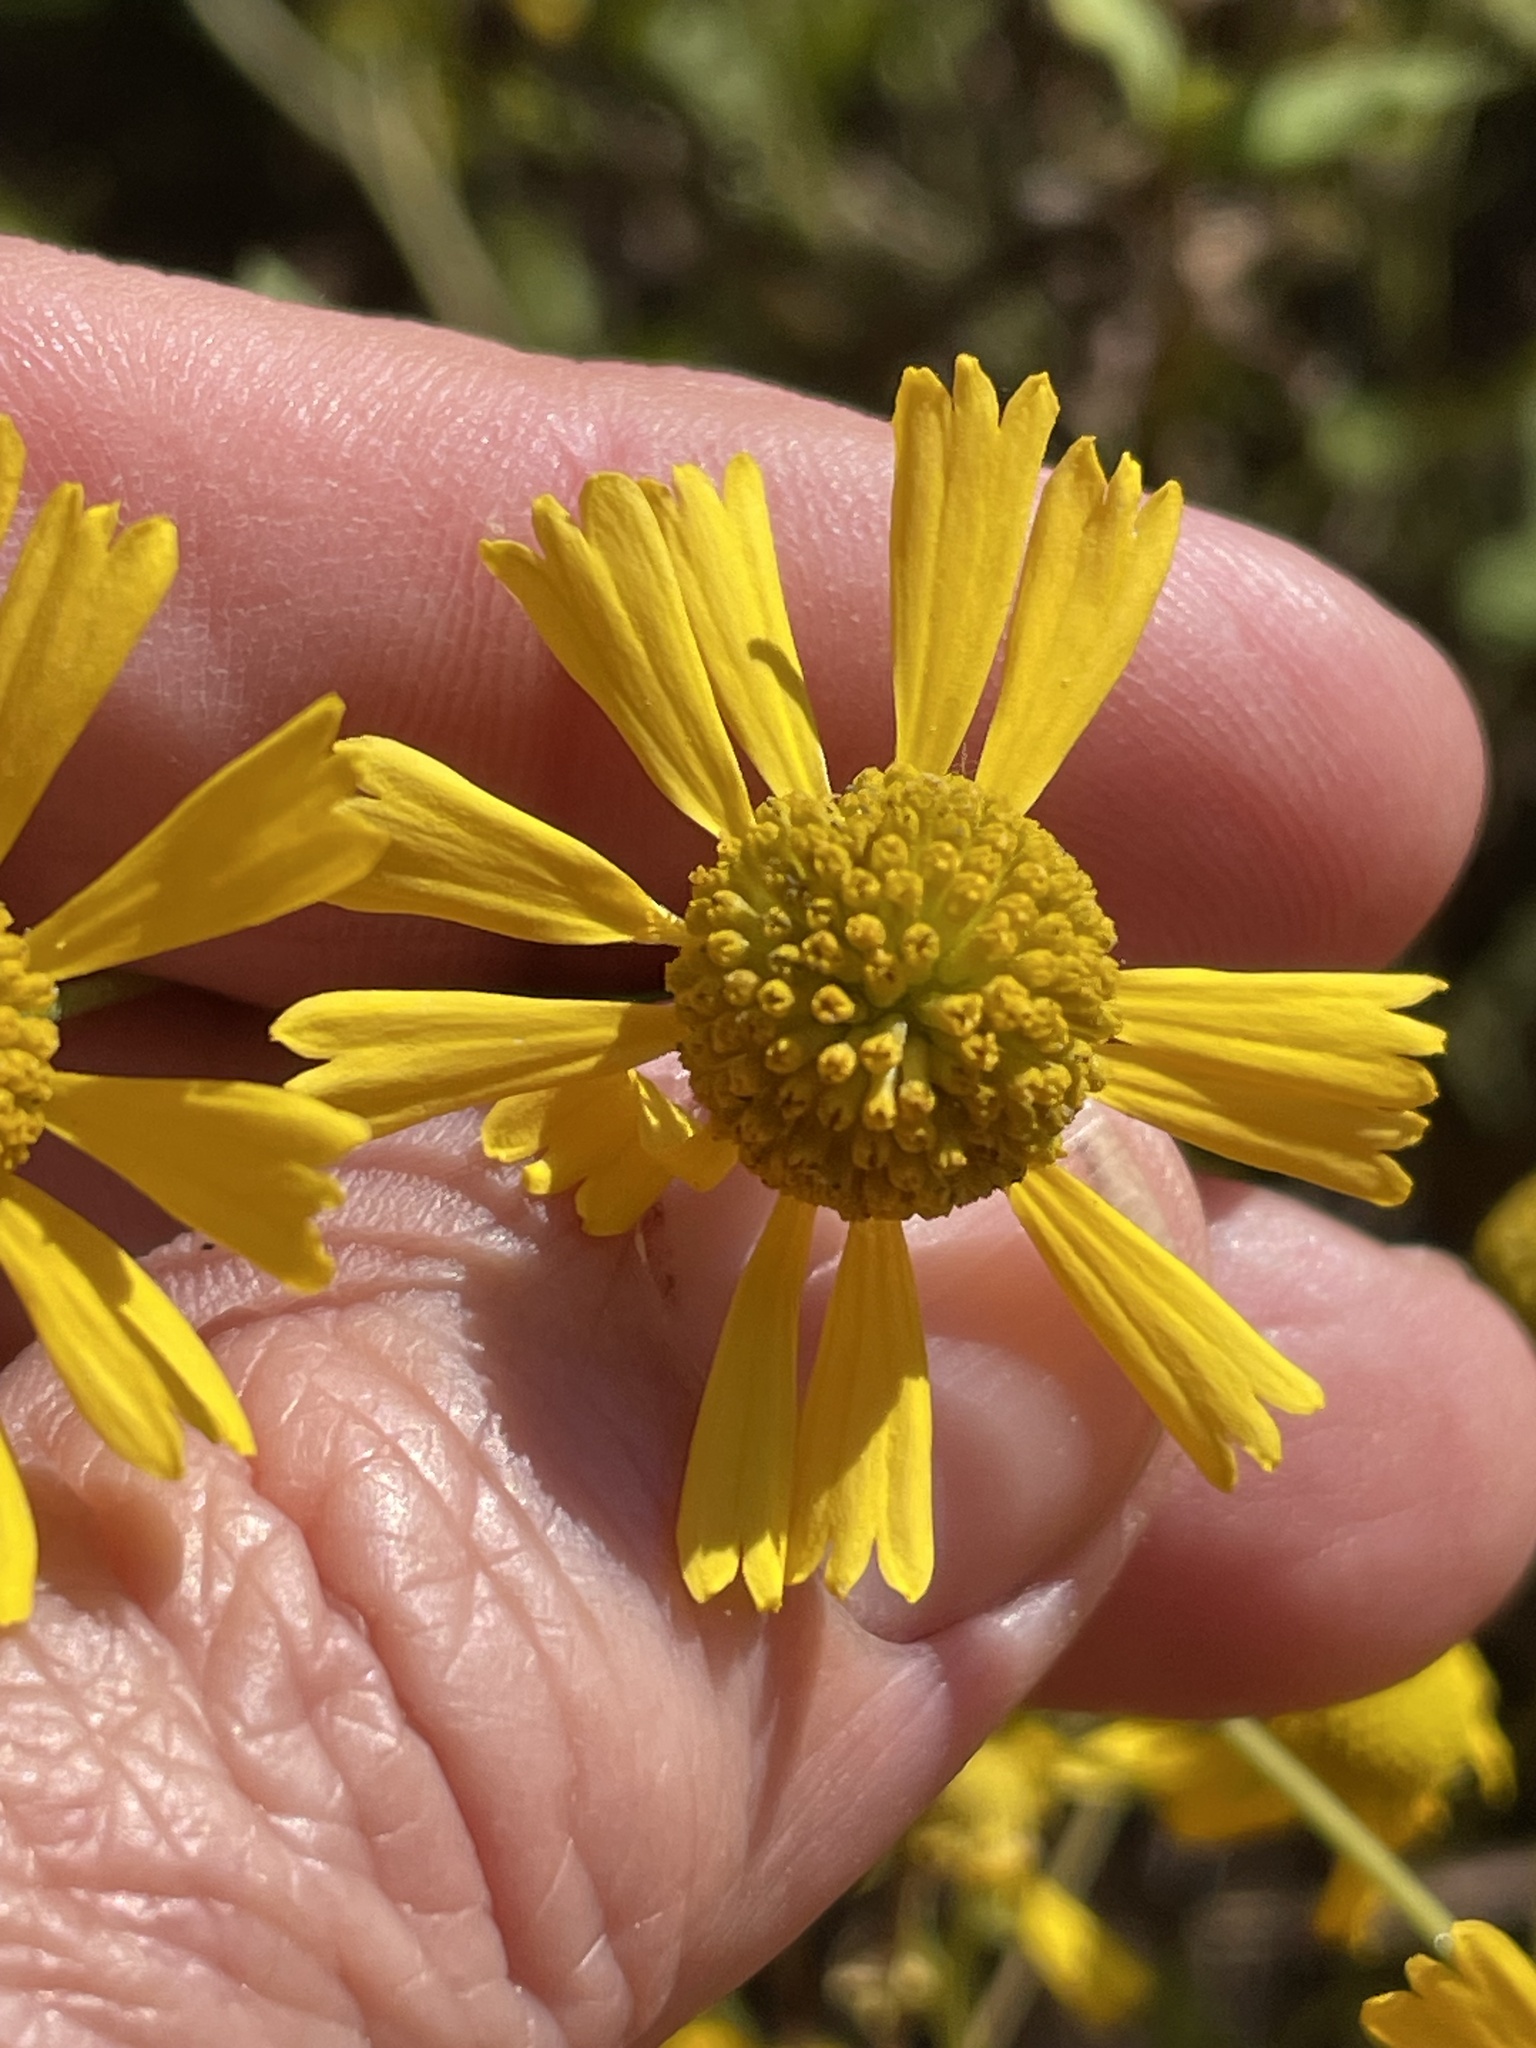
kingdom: Plantae
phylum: Tracheophyta
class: Magnoliopsida
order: Asterales
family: Asteraceae
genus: Helenium
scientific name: Helenium autumnale
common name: Sneezeweed
